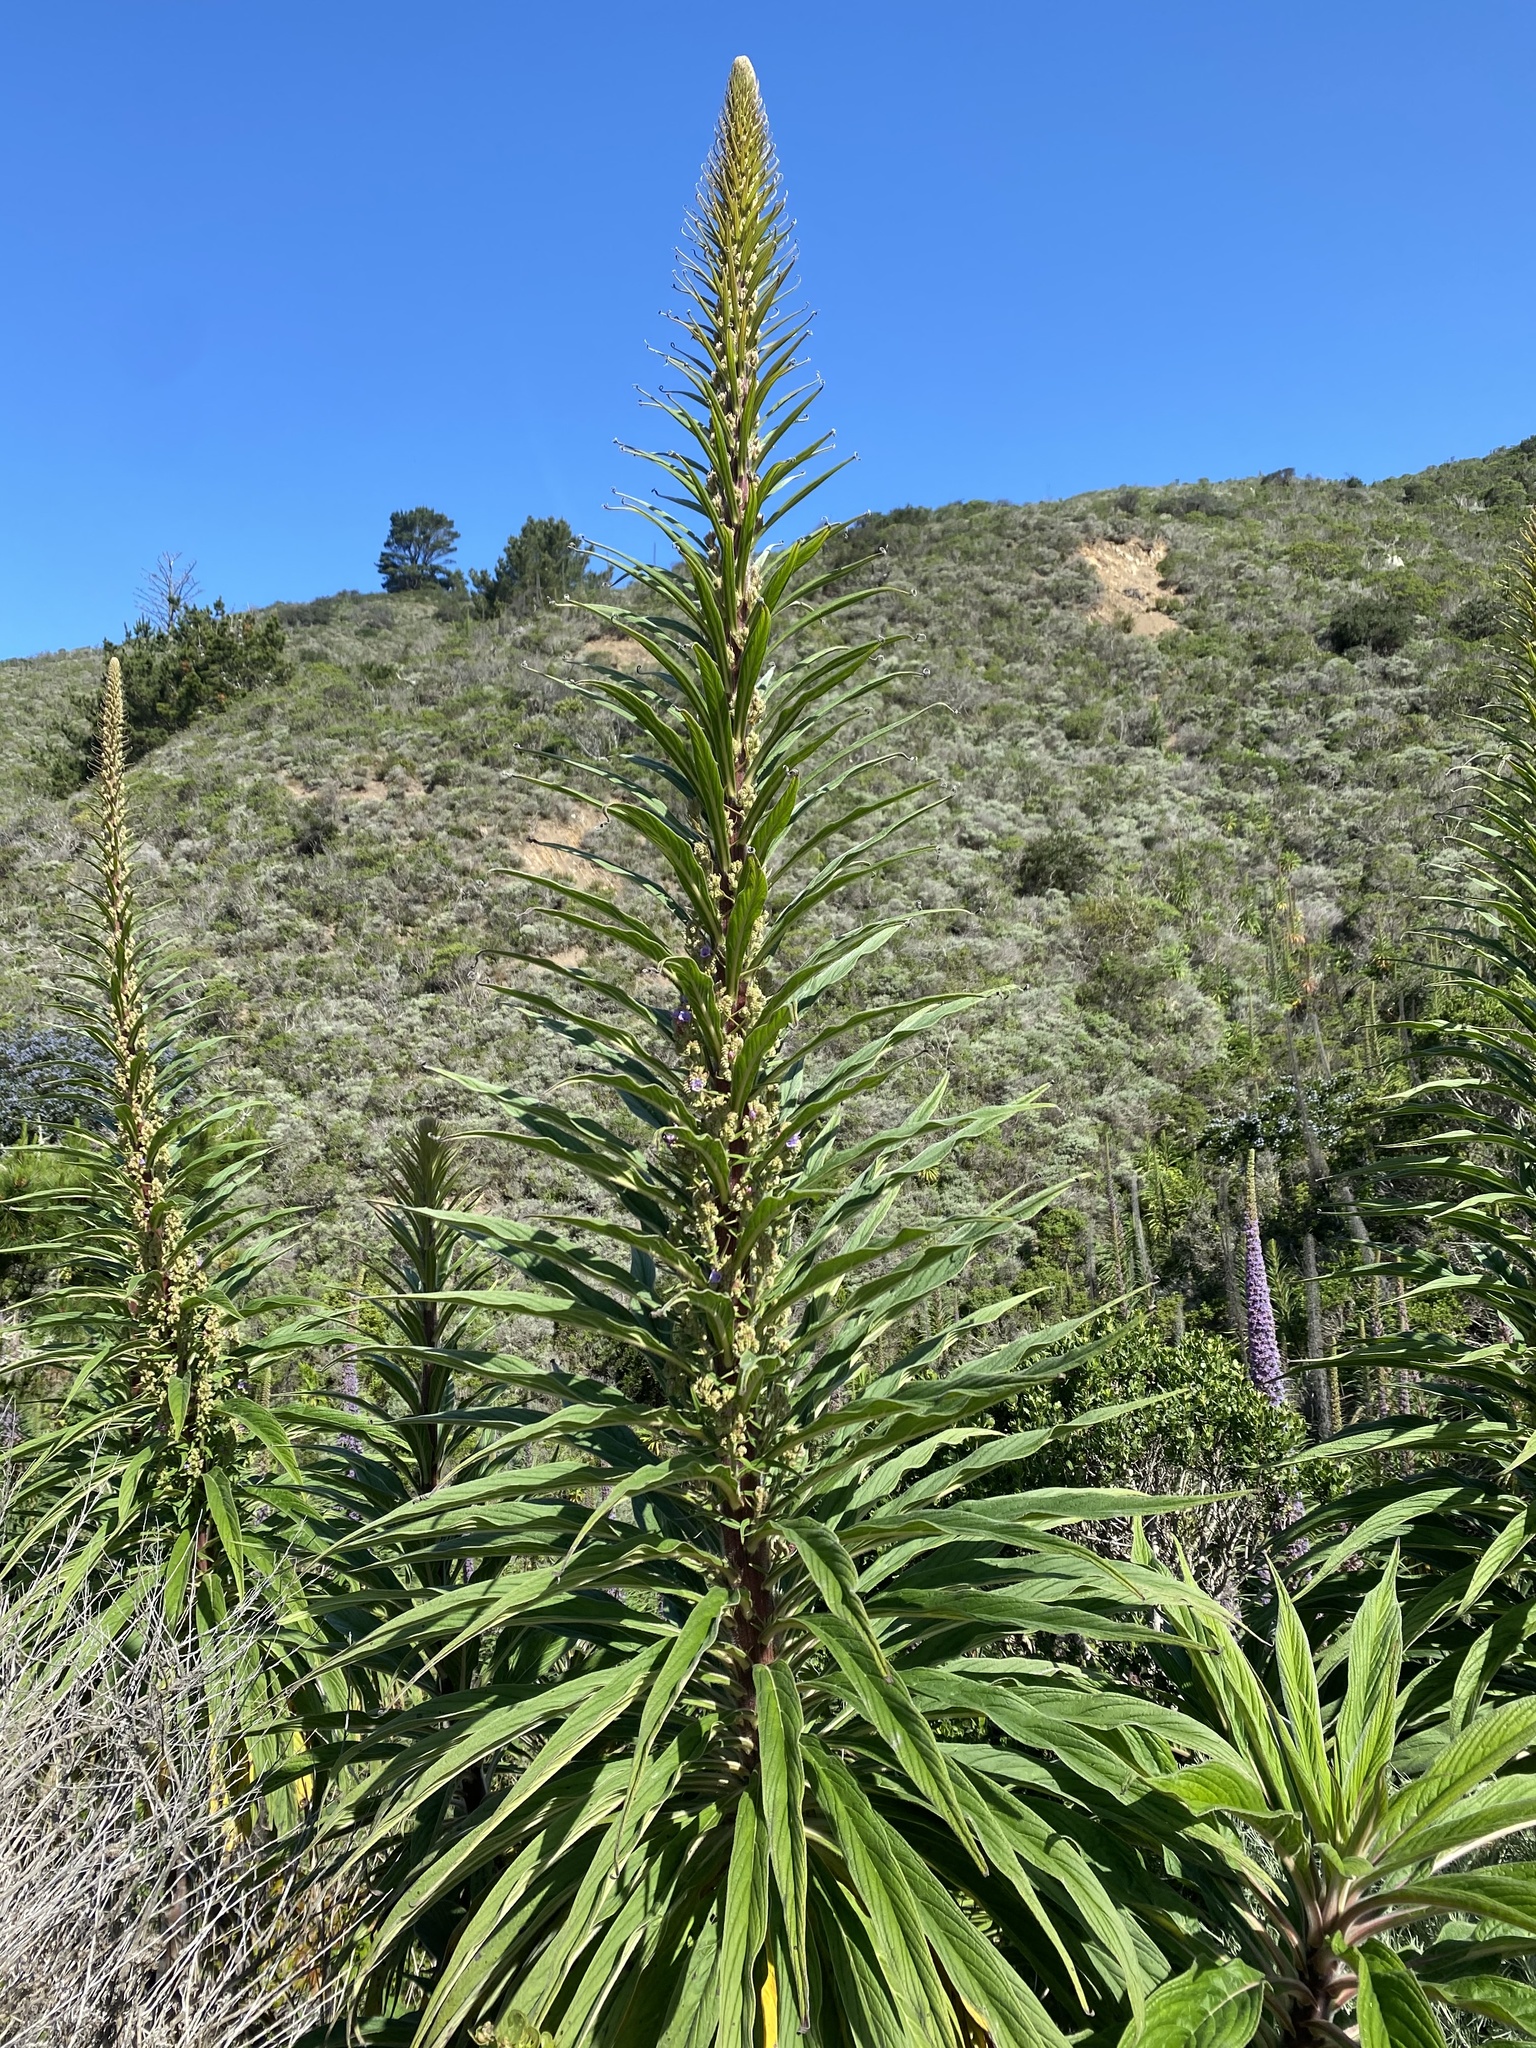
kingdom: Plantae
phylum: Tracheophyta
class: Magnoliopsida
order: Boraginales
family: Boraginaceae
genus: Echium
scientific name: Echium pininana
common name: Giant viper's-bugloss
